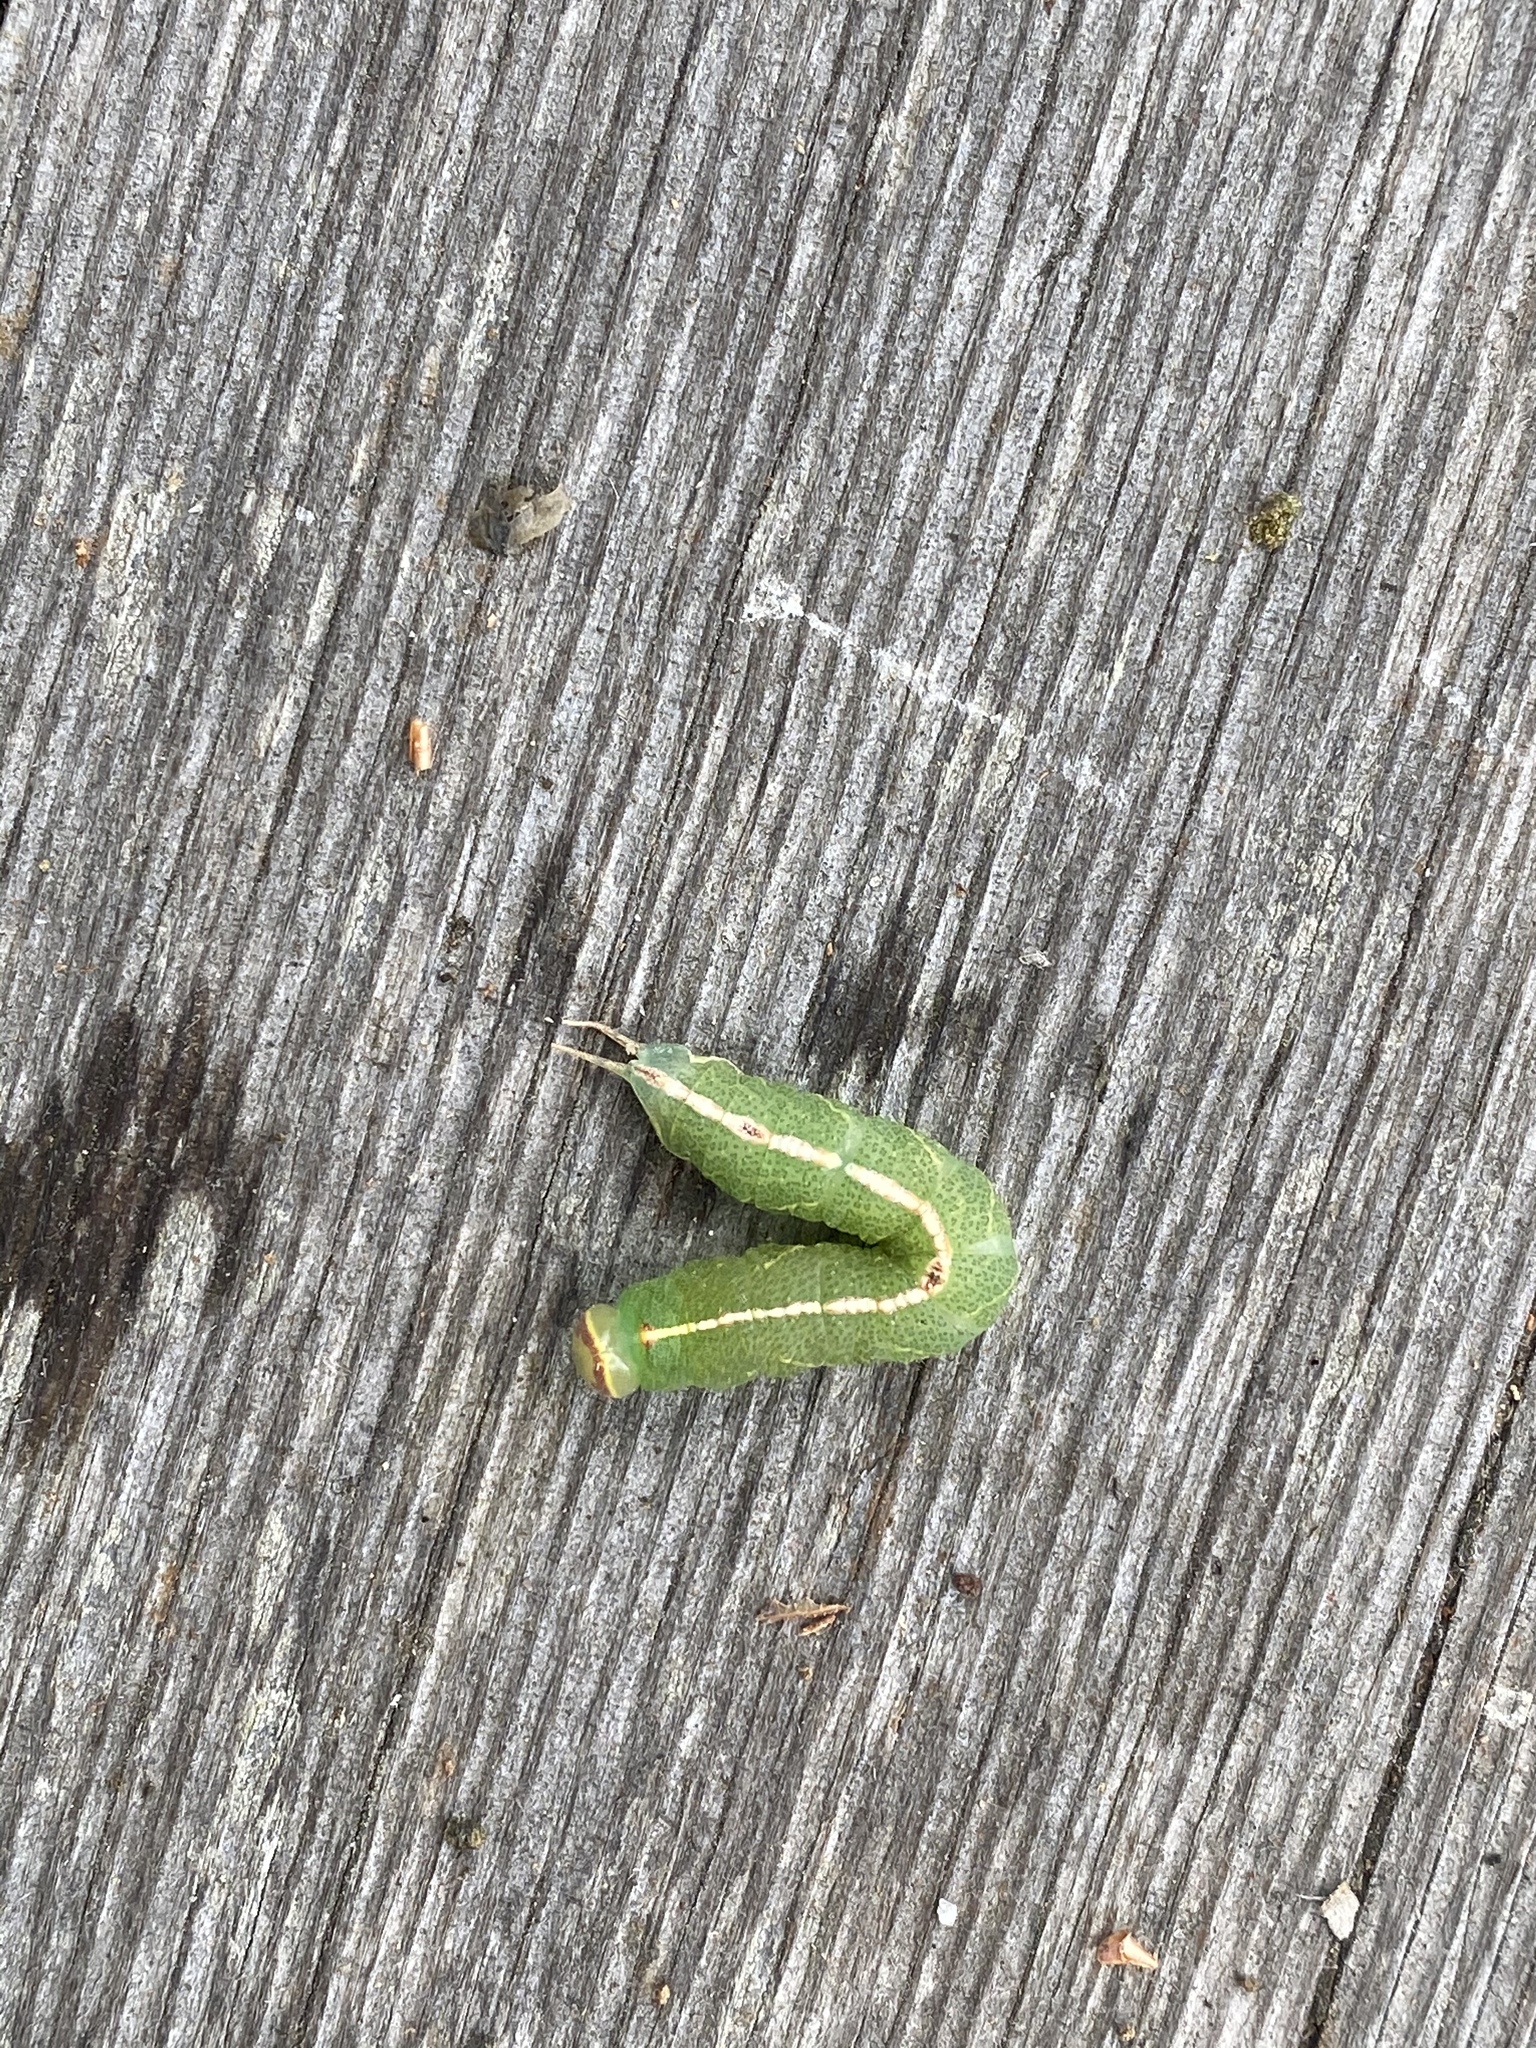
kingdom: Animalia
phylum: Arthropoda
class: Insecta
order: Lepidoptera
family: Notodontidae
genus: Macrurocampa
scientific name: Macrurocampa marthesia
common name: Mottled prominent
